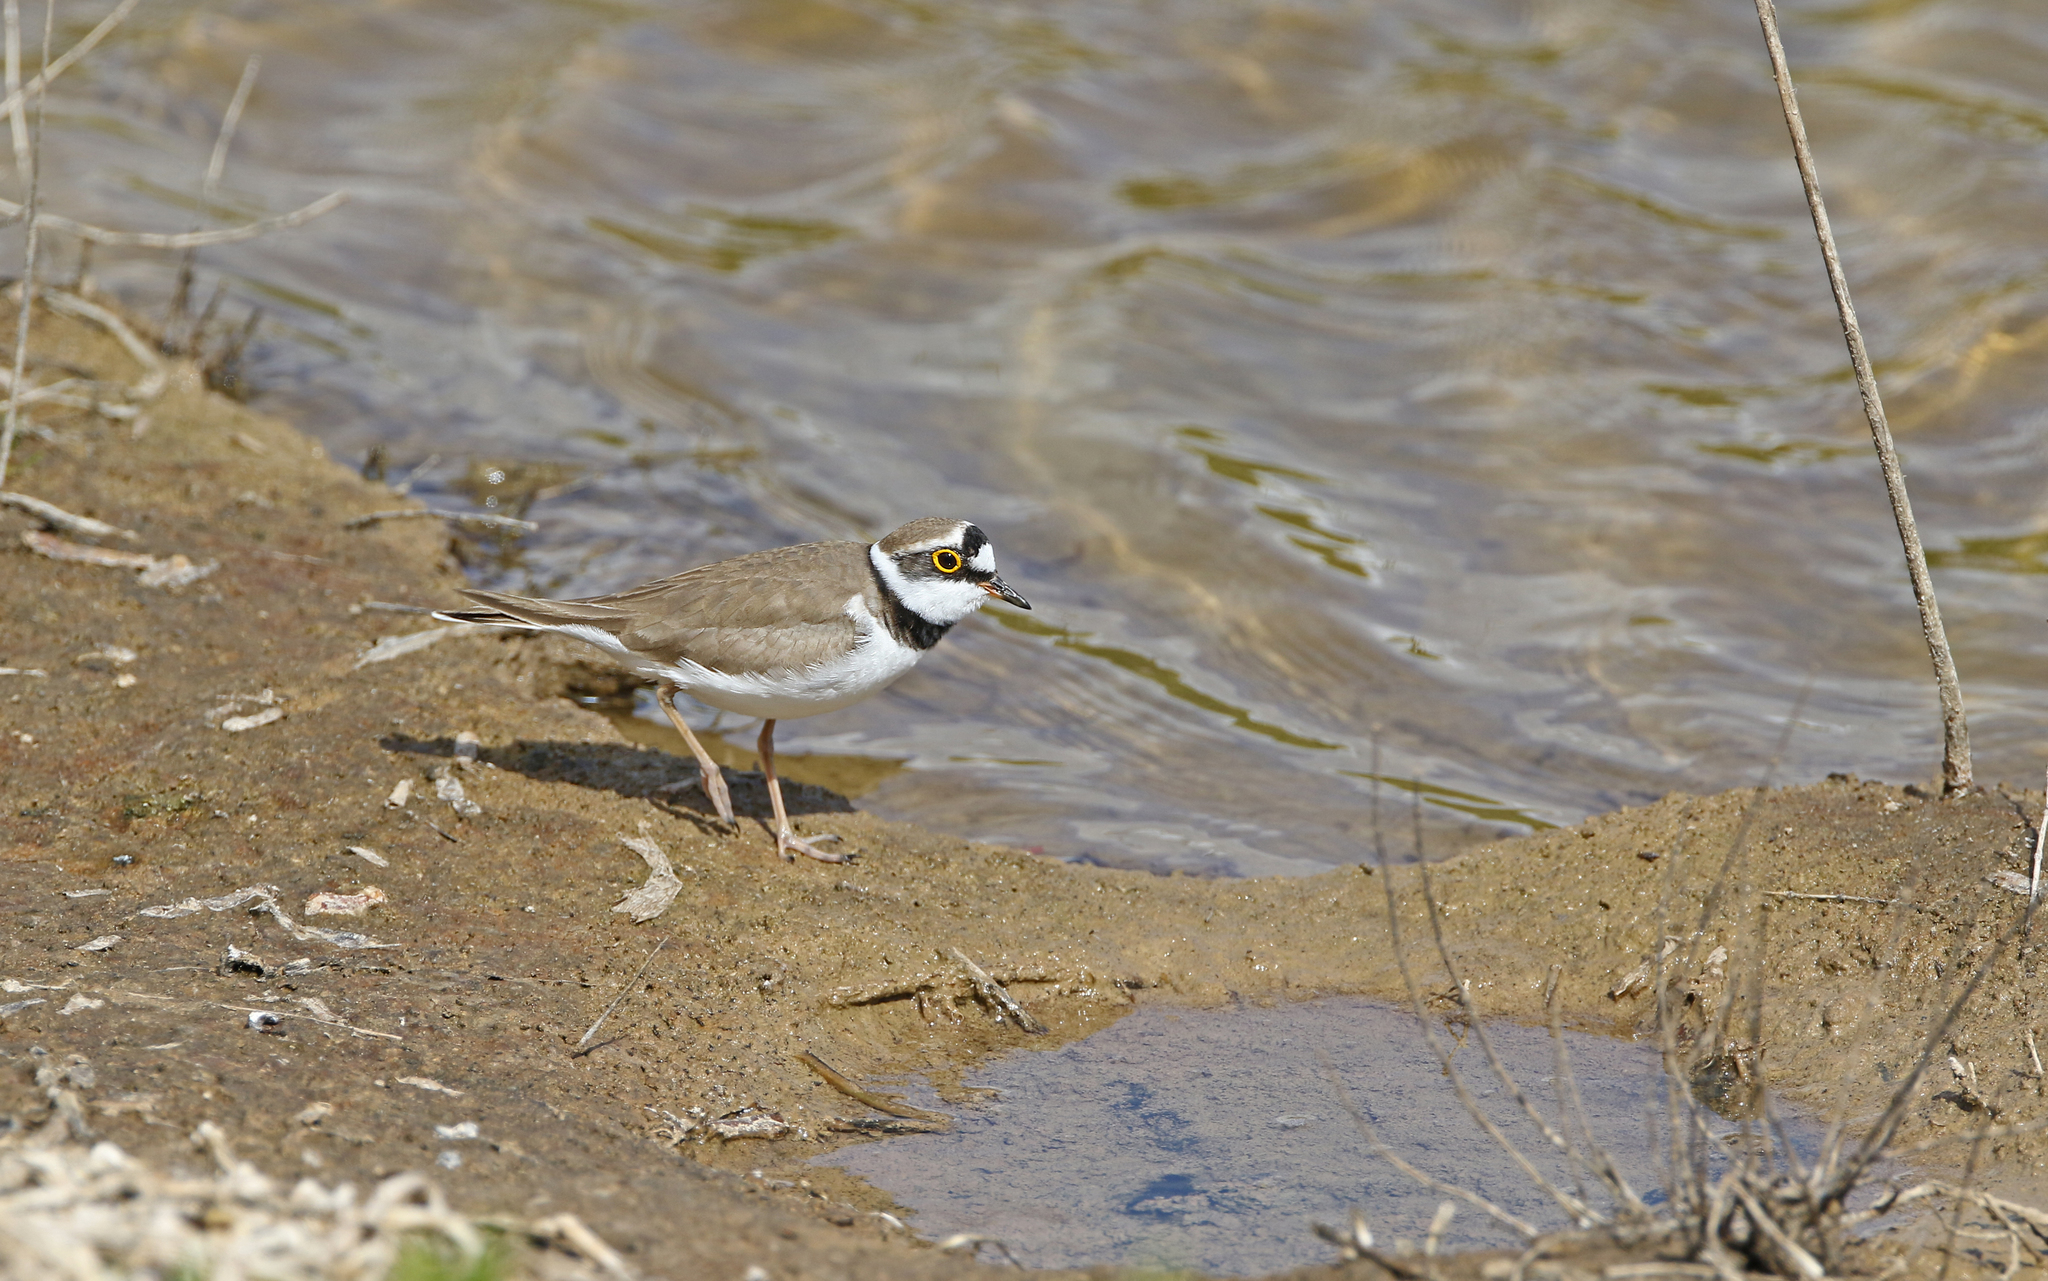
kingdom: Animalia
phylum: Chordata
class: Aves
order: Charadriiformes
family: Charadriidae
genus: Charadrius
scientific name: Charadrius dubius
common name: Little ringed plover
